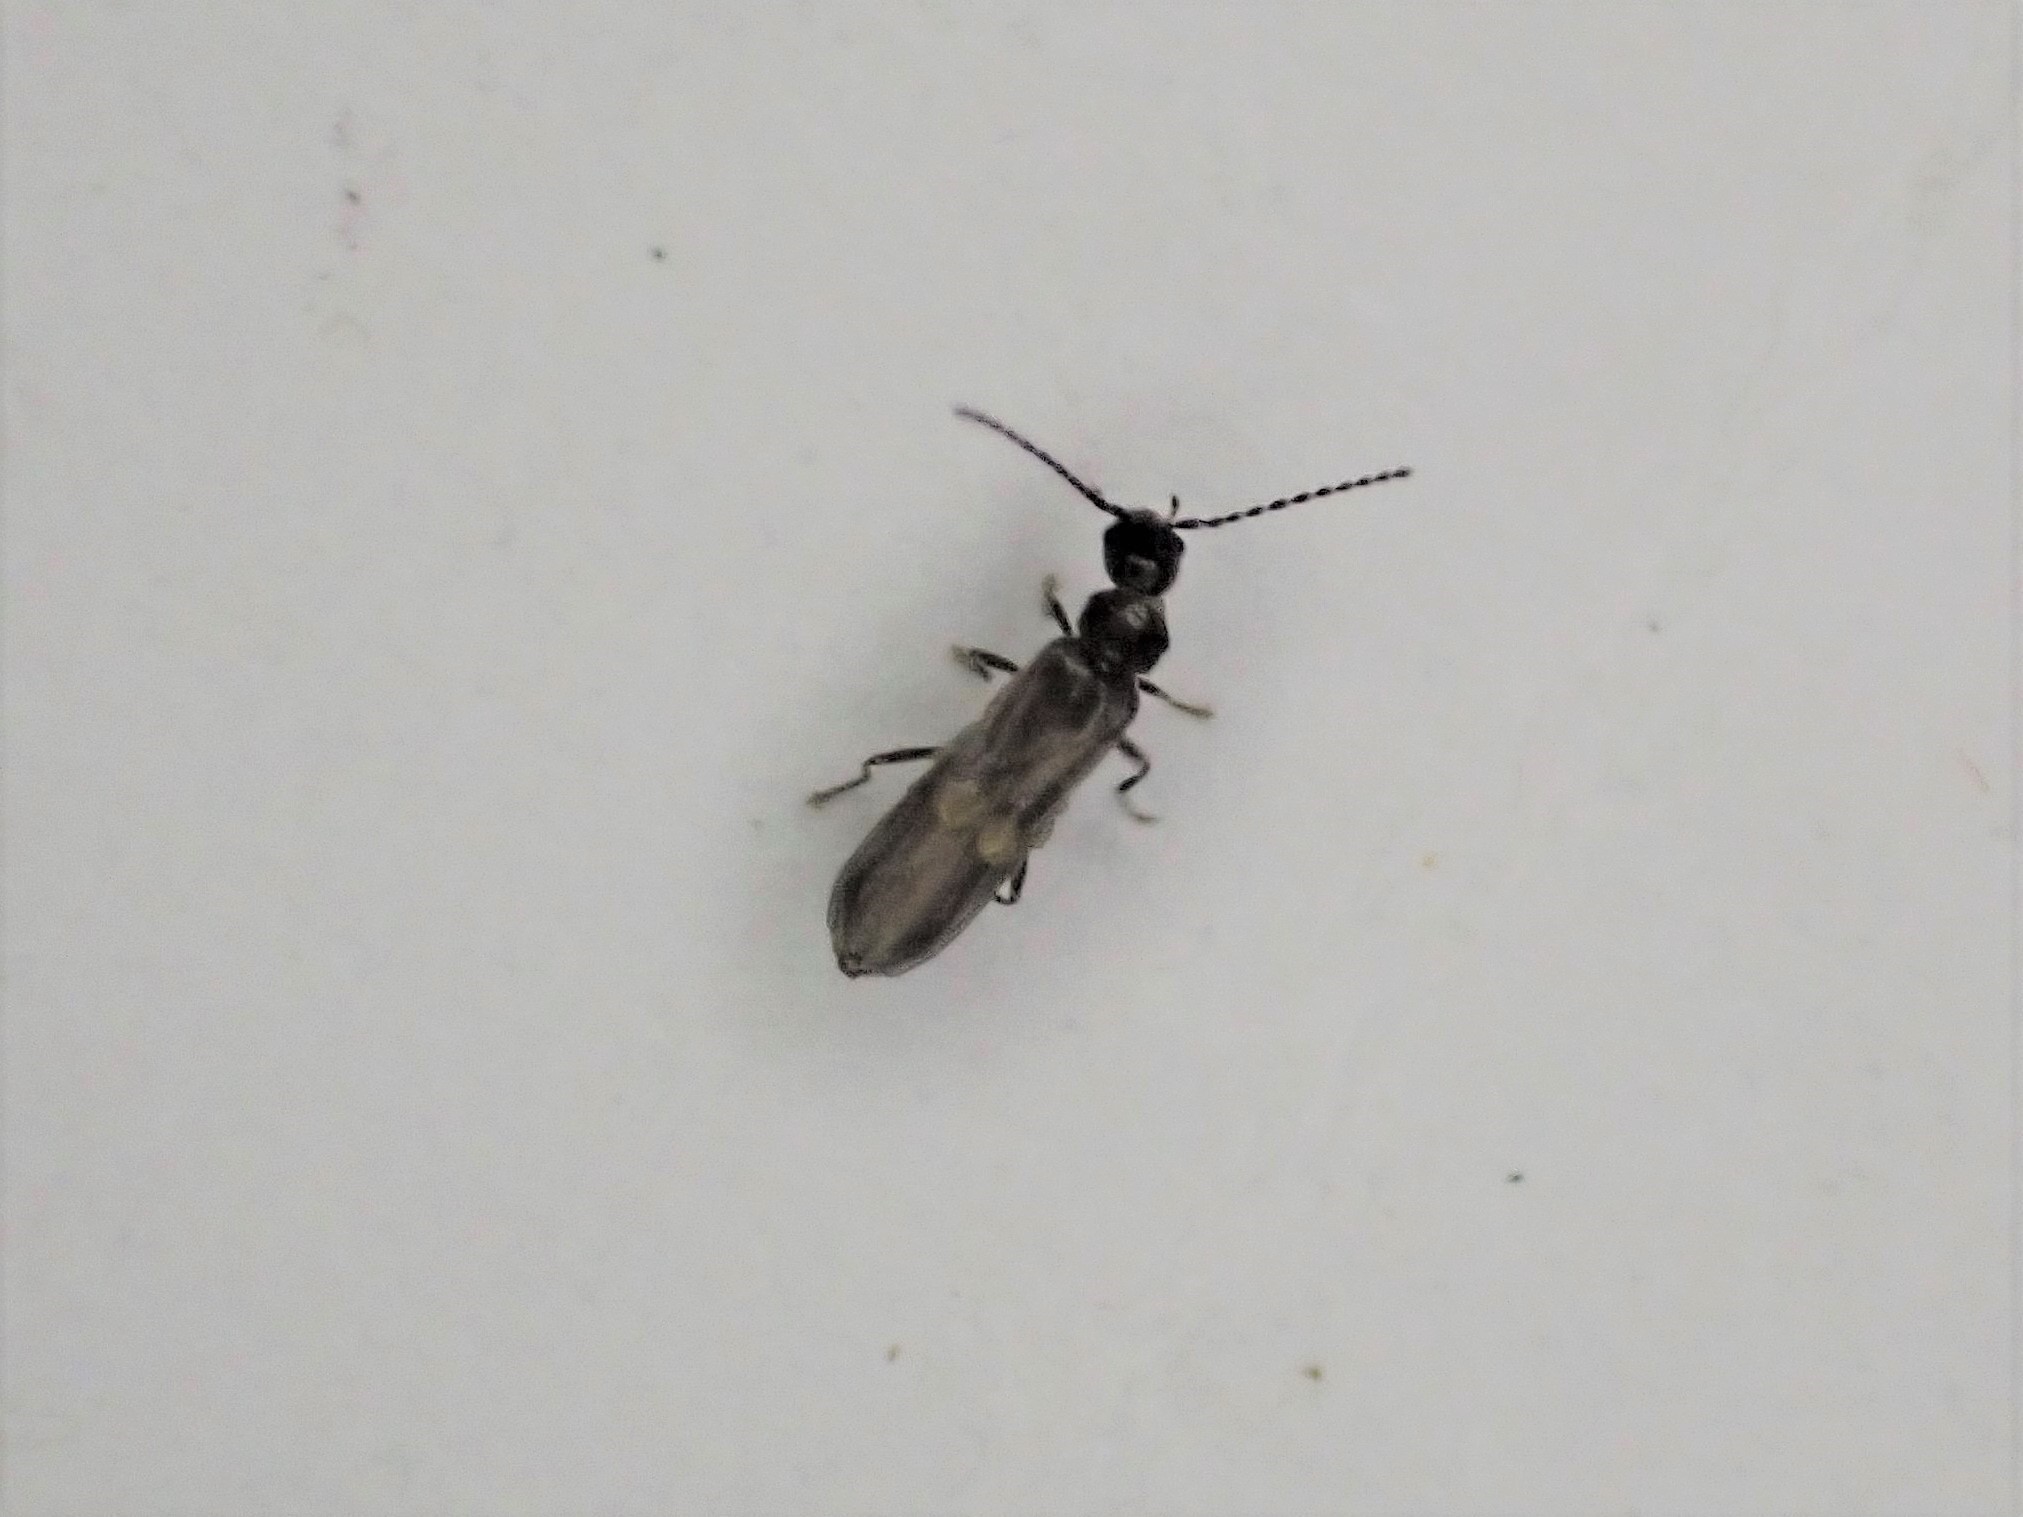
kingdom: Animalia
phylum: Arthropoda
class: Insecta
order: Coleoptera
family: Cantharidae
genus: Malthodes
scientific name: Malthodes pumilus
